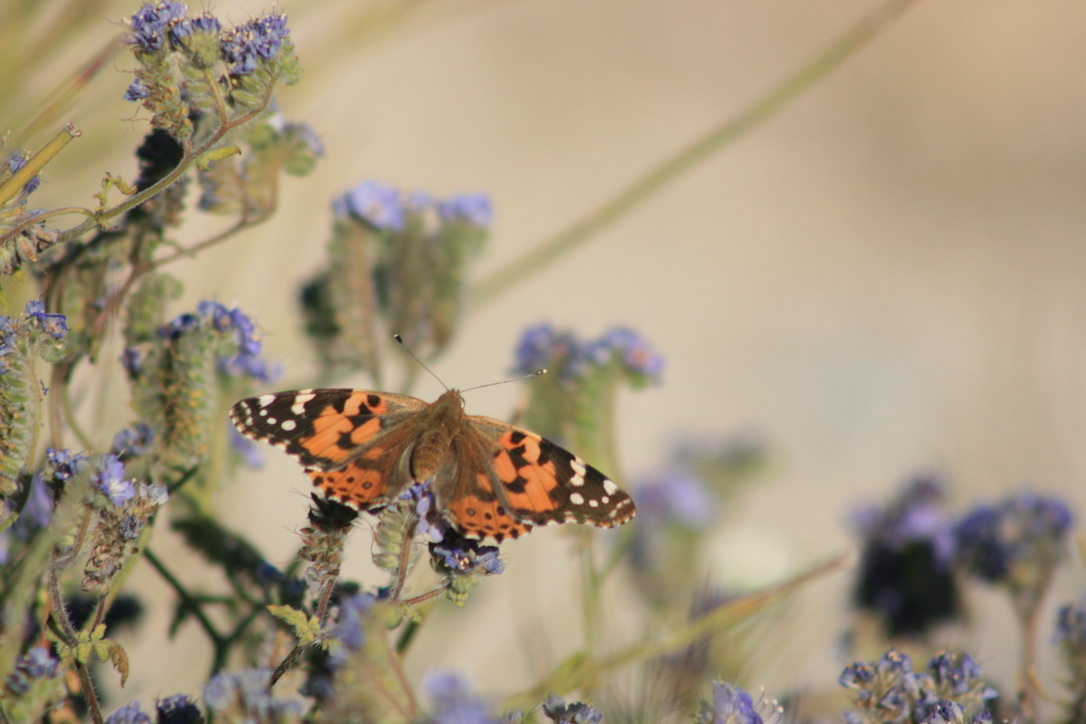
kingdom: Animalia
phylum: Arthropoda
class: Insecta
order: Lepidoptera
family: Nymphalidae
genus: Vanessa
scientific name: Vanessa cardui
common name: Painted lady
